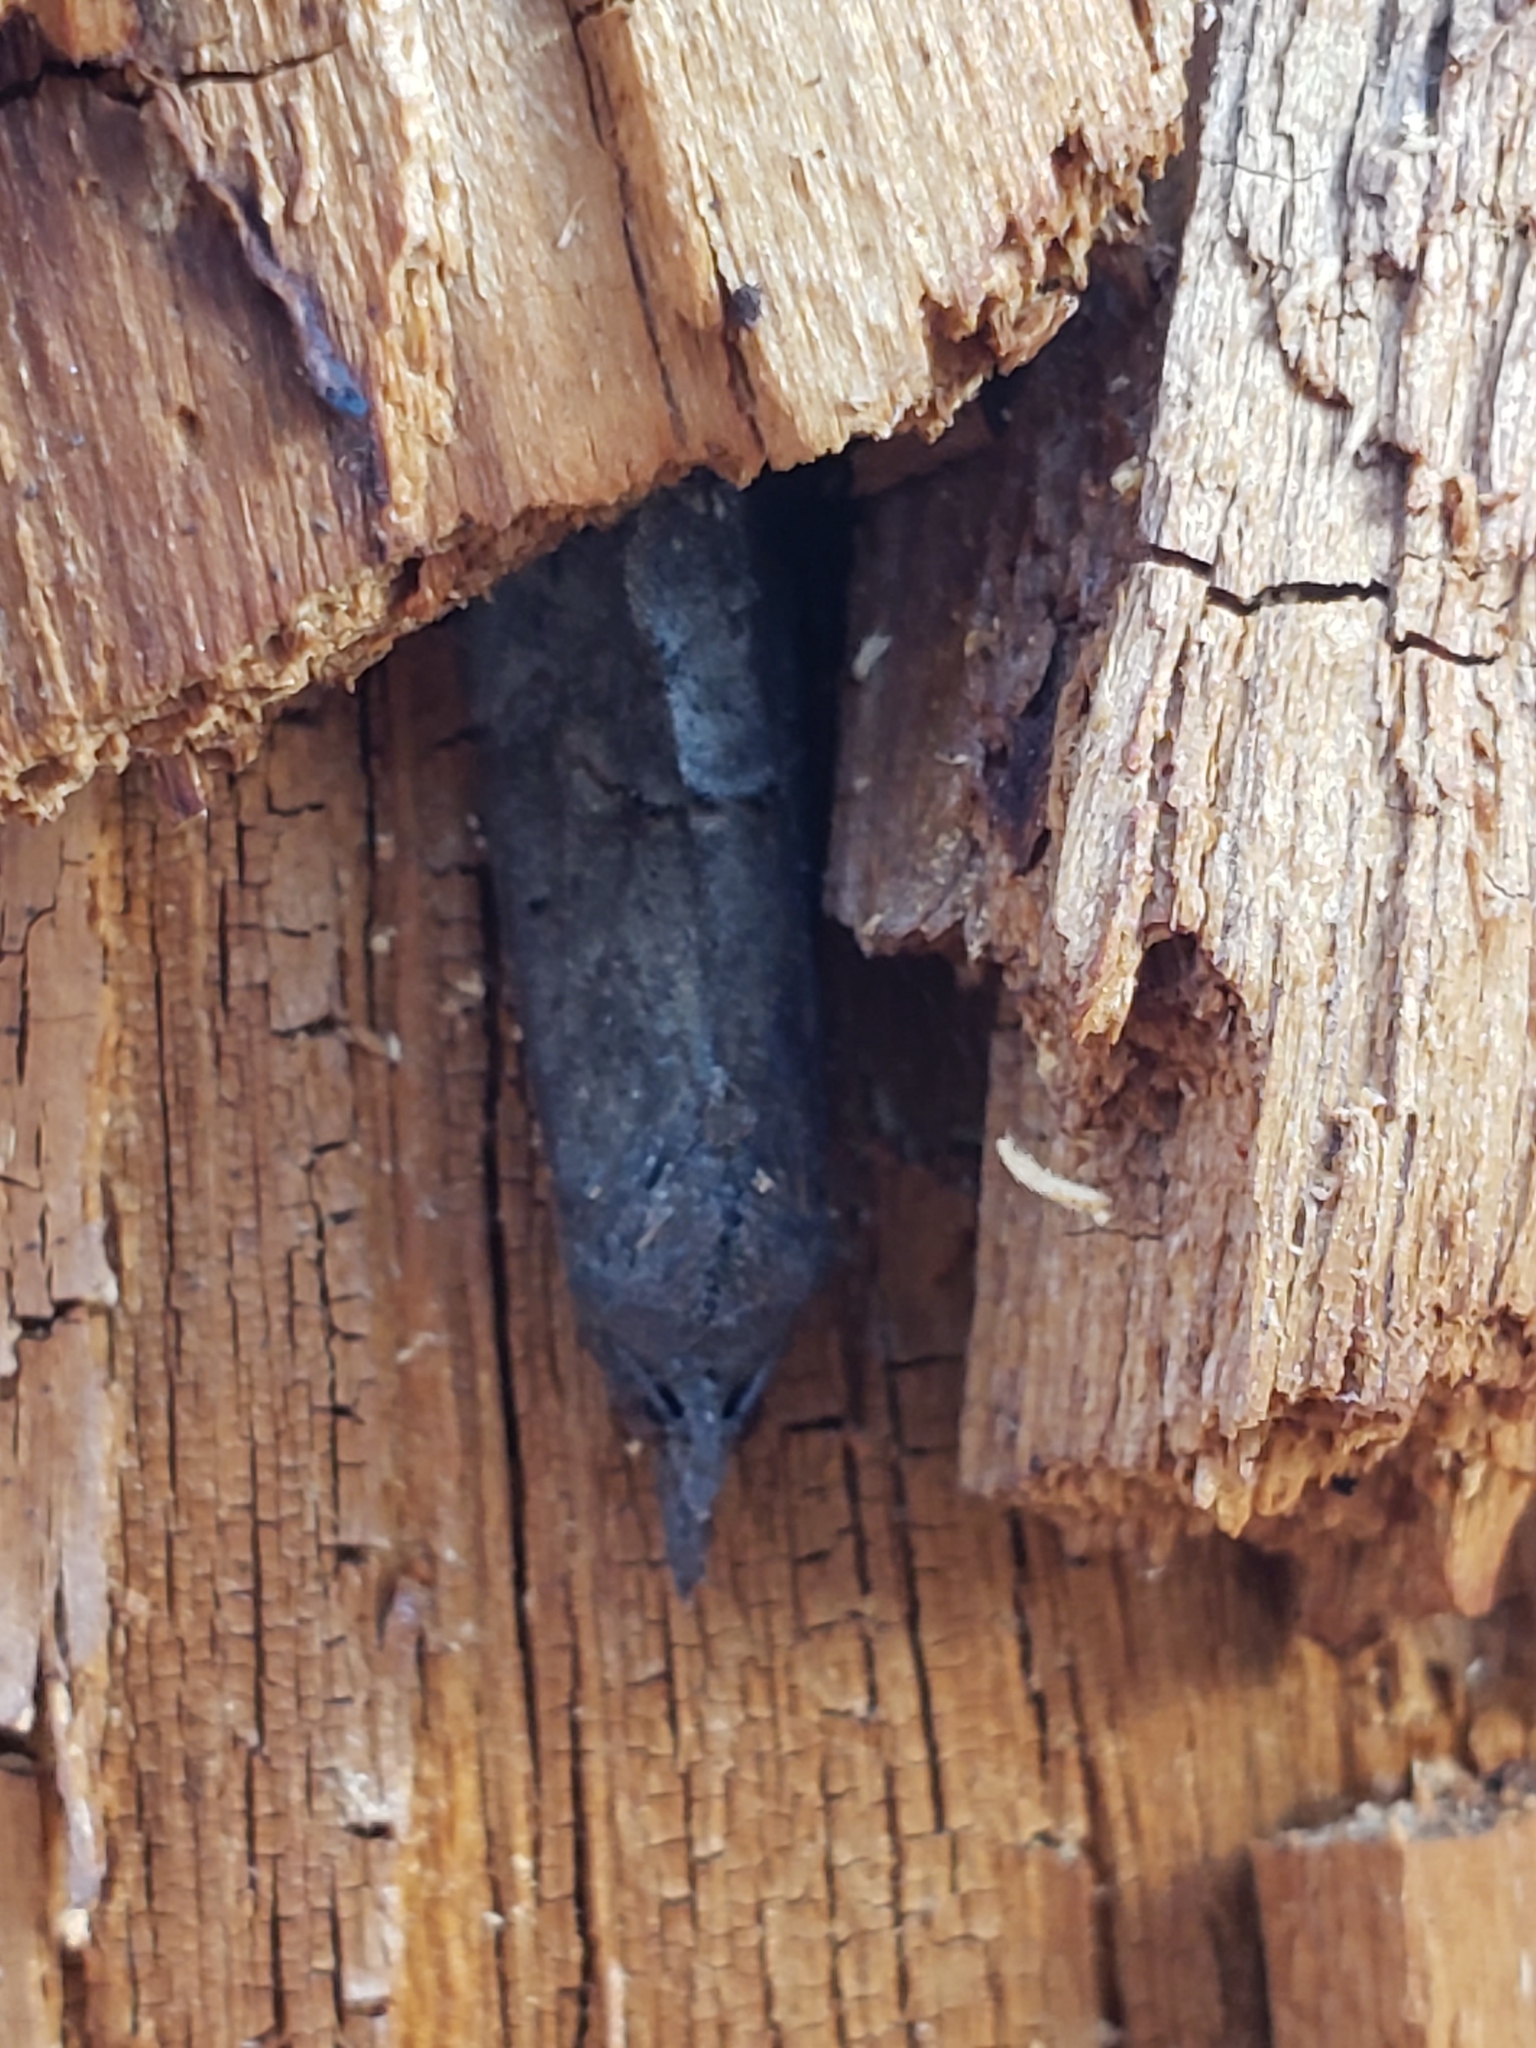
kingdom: Animalia
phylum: Arthropoda
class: Insecta
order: Lepidoptera
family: Erebidae
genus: Hypena
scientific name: Hypena scabra
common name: Green cloverworm
